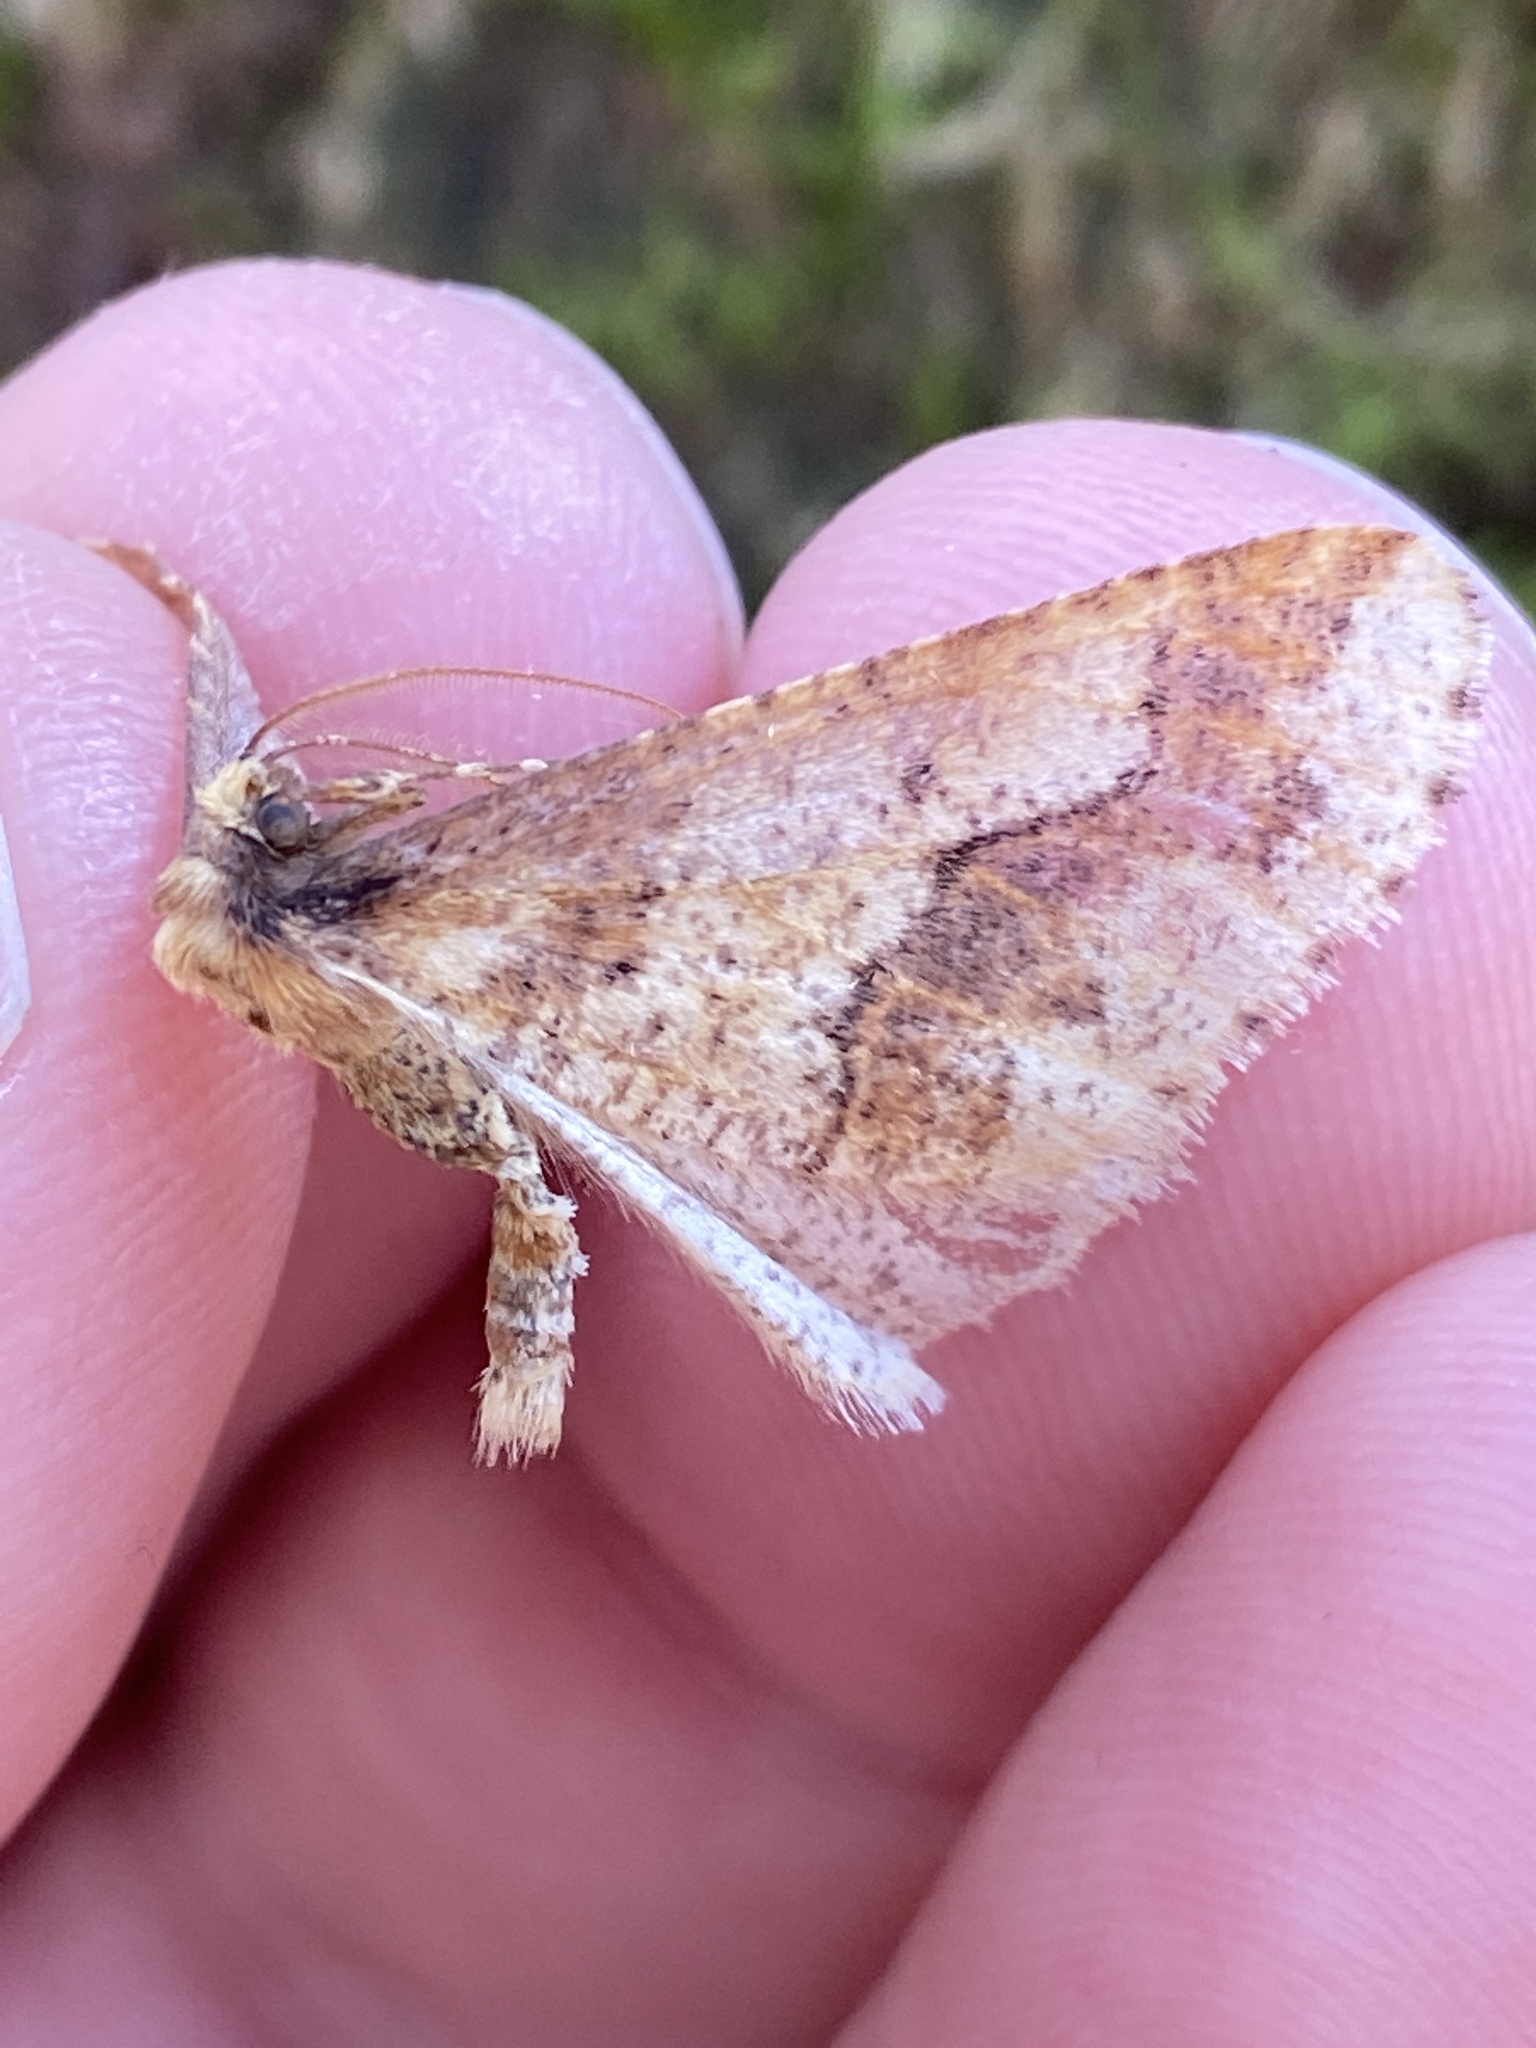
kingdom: Animalia
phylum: Arthropoda
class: Insecta
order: Lepidoptera
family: Geometridae
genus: Erannis
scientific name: Erannis defoliaria
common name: Mottled umber
